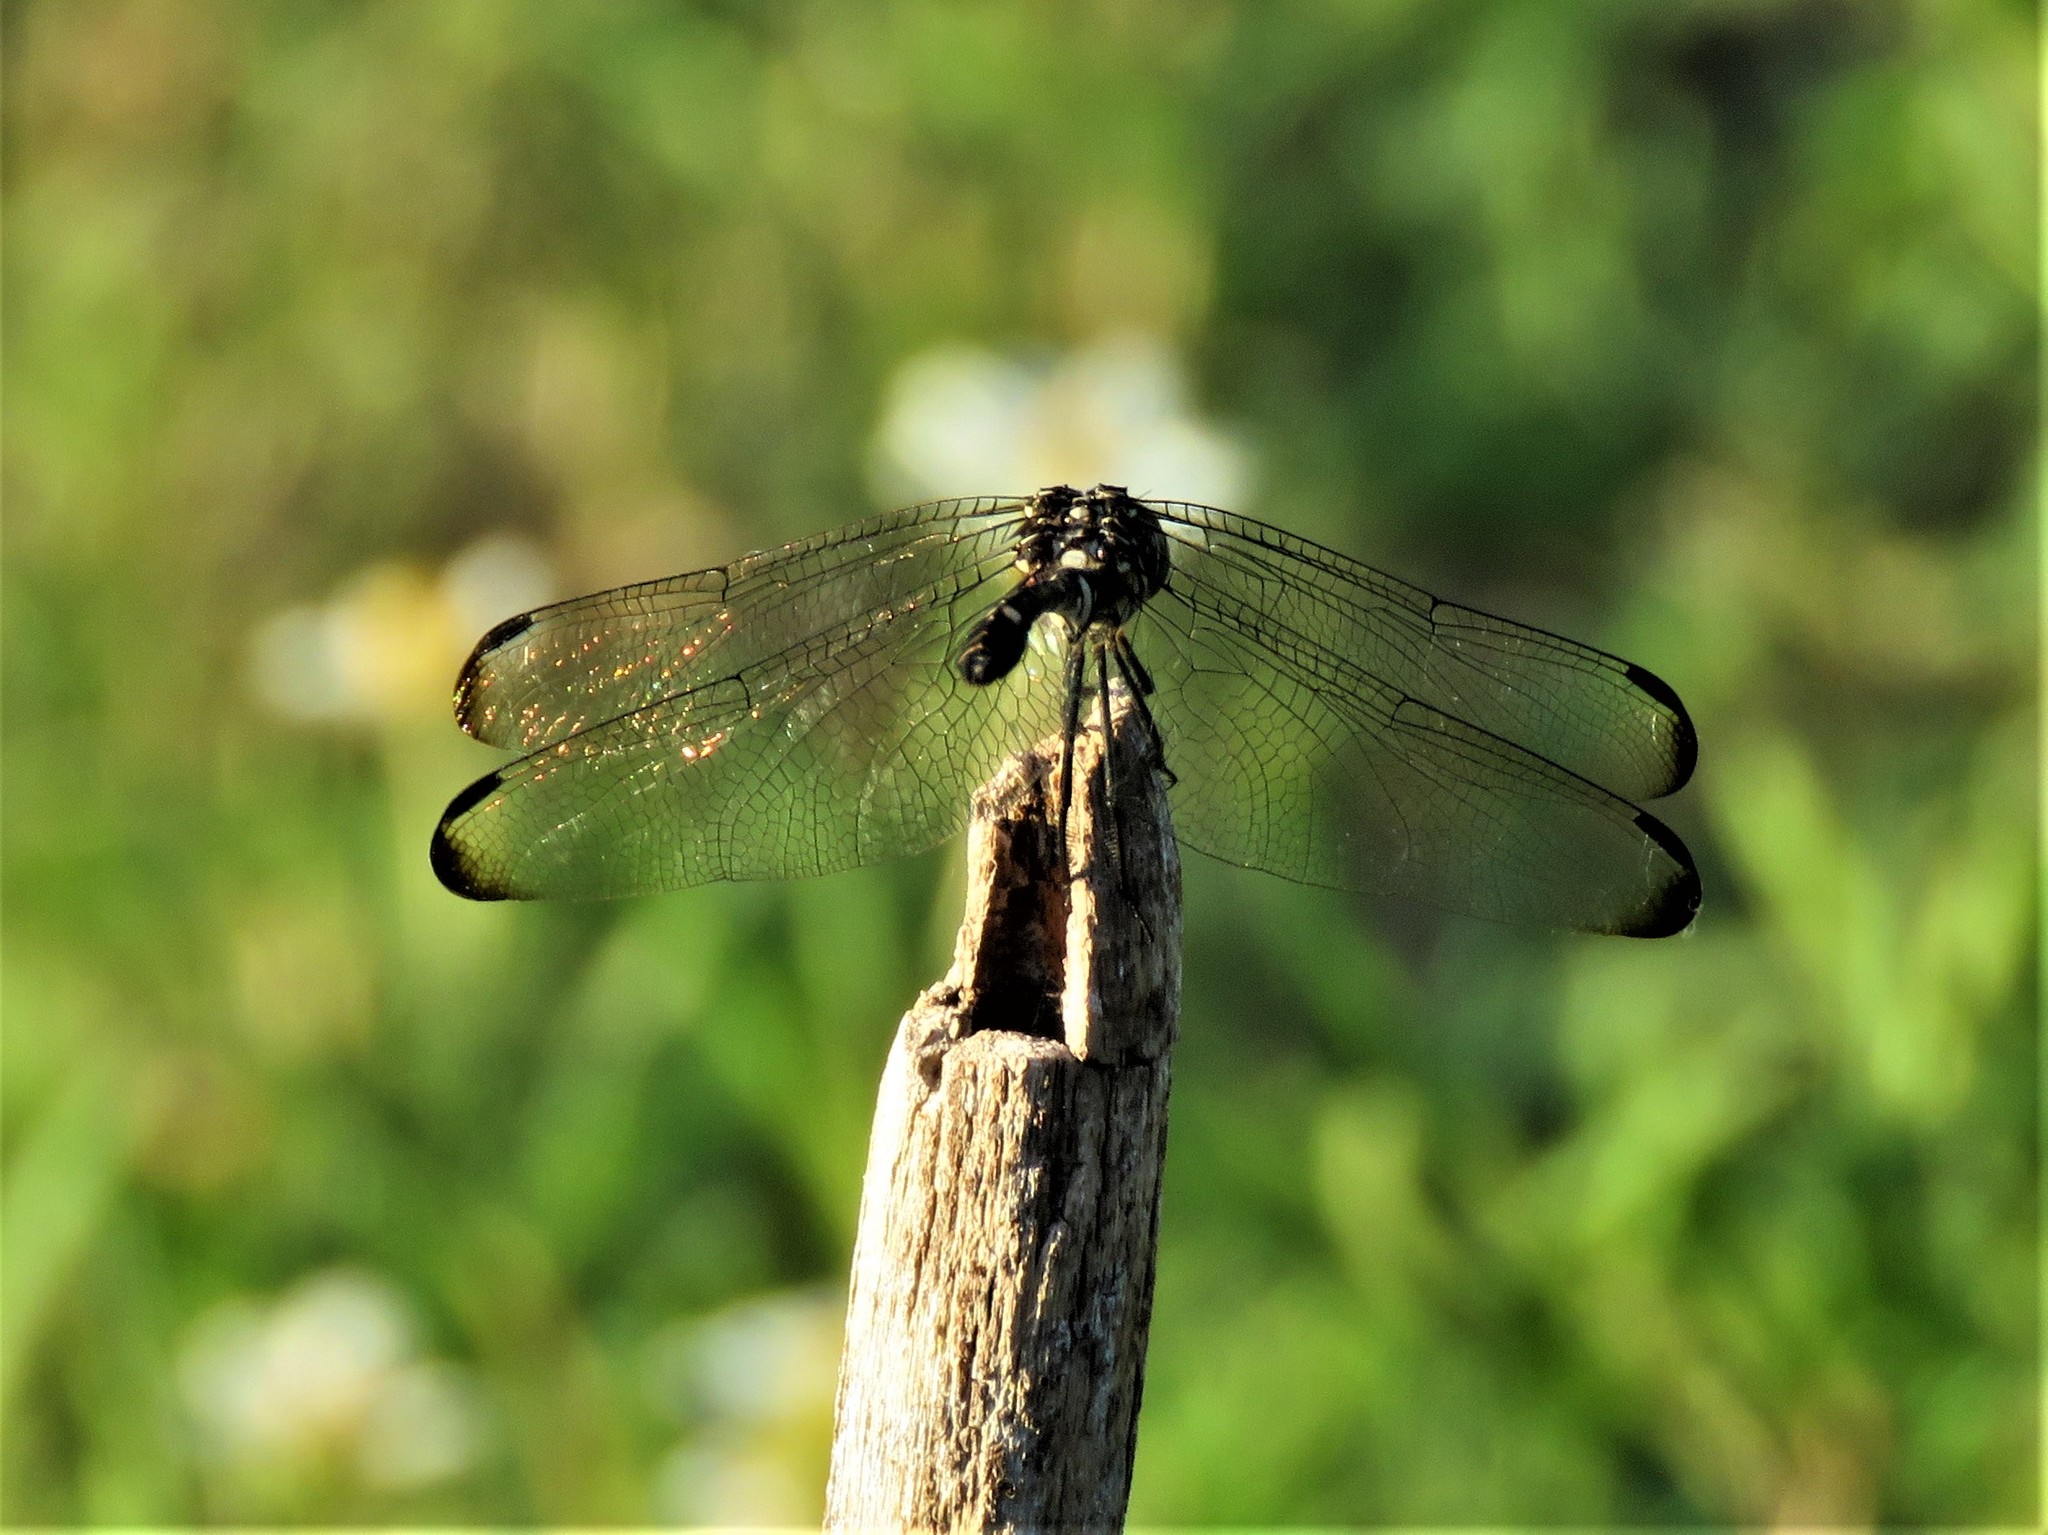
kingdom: Animalia
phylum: Arthropoda
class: Insecta
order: Odonata
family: Libellulidae
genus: Dythemis
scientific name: Dythemis velox
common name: Swift setwing
